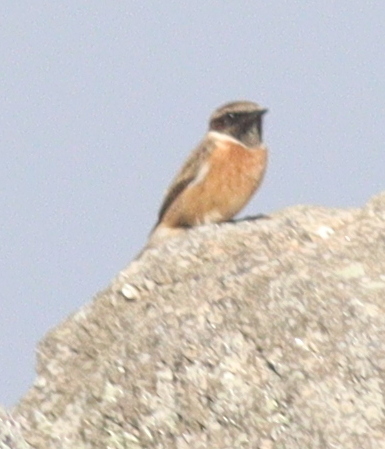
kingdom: Animalia
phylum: Chordata
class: Aves
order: Passeriformes
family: Muscicapidae
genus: Saxicola
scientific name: Saxicola rubicola
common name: European stonechat
